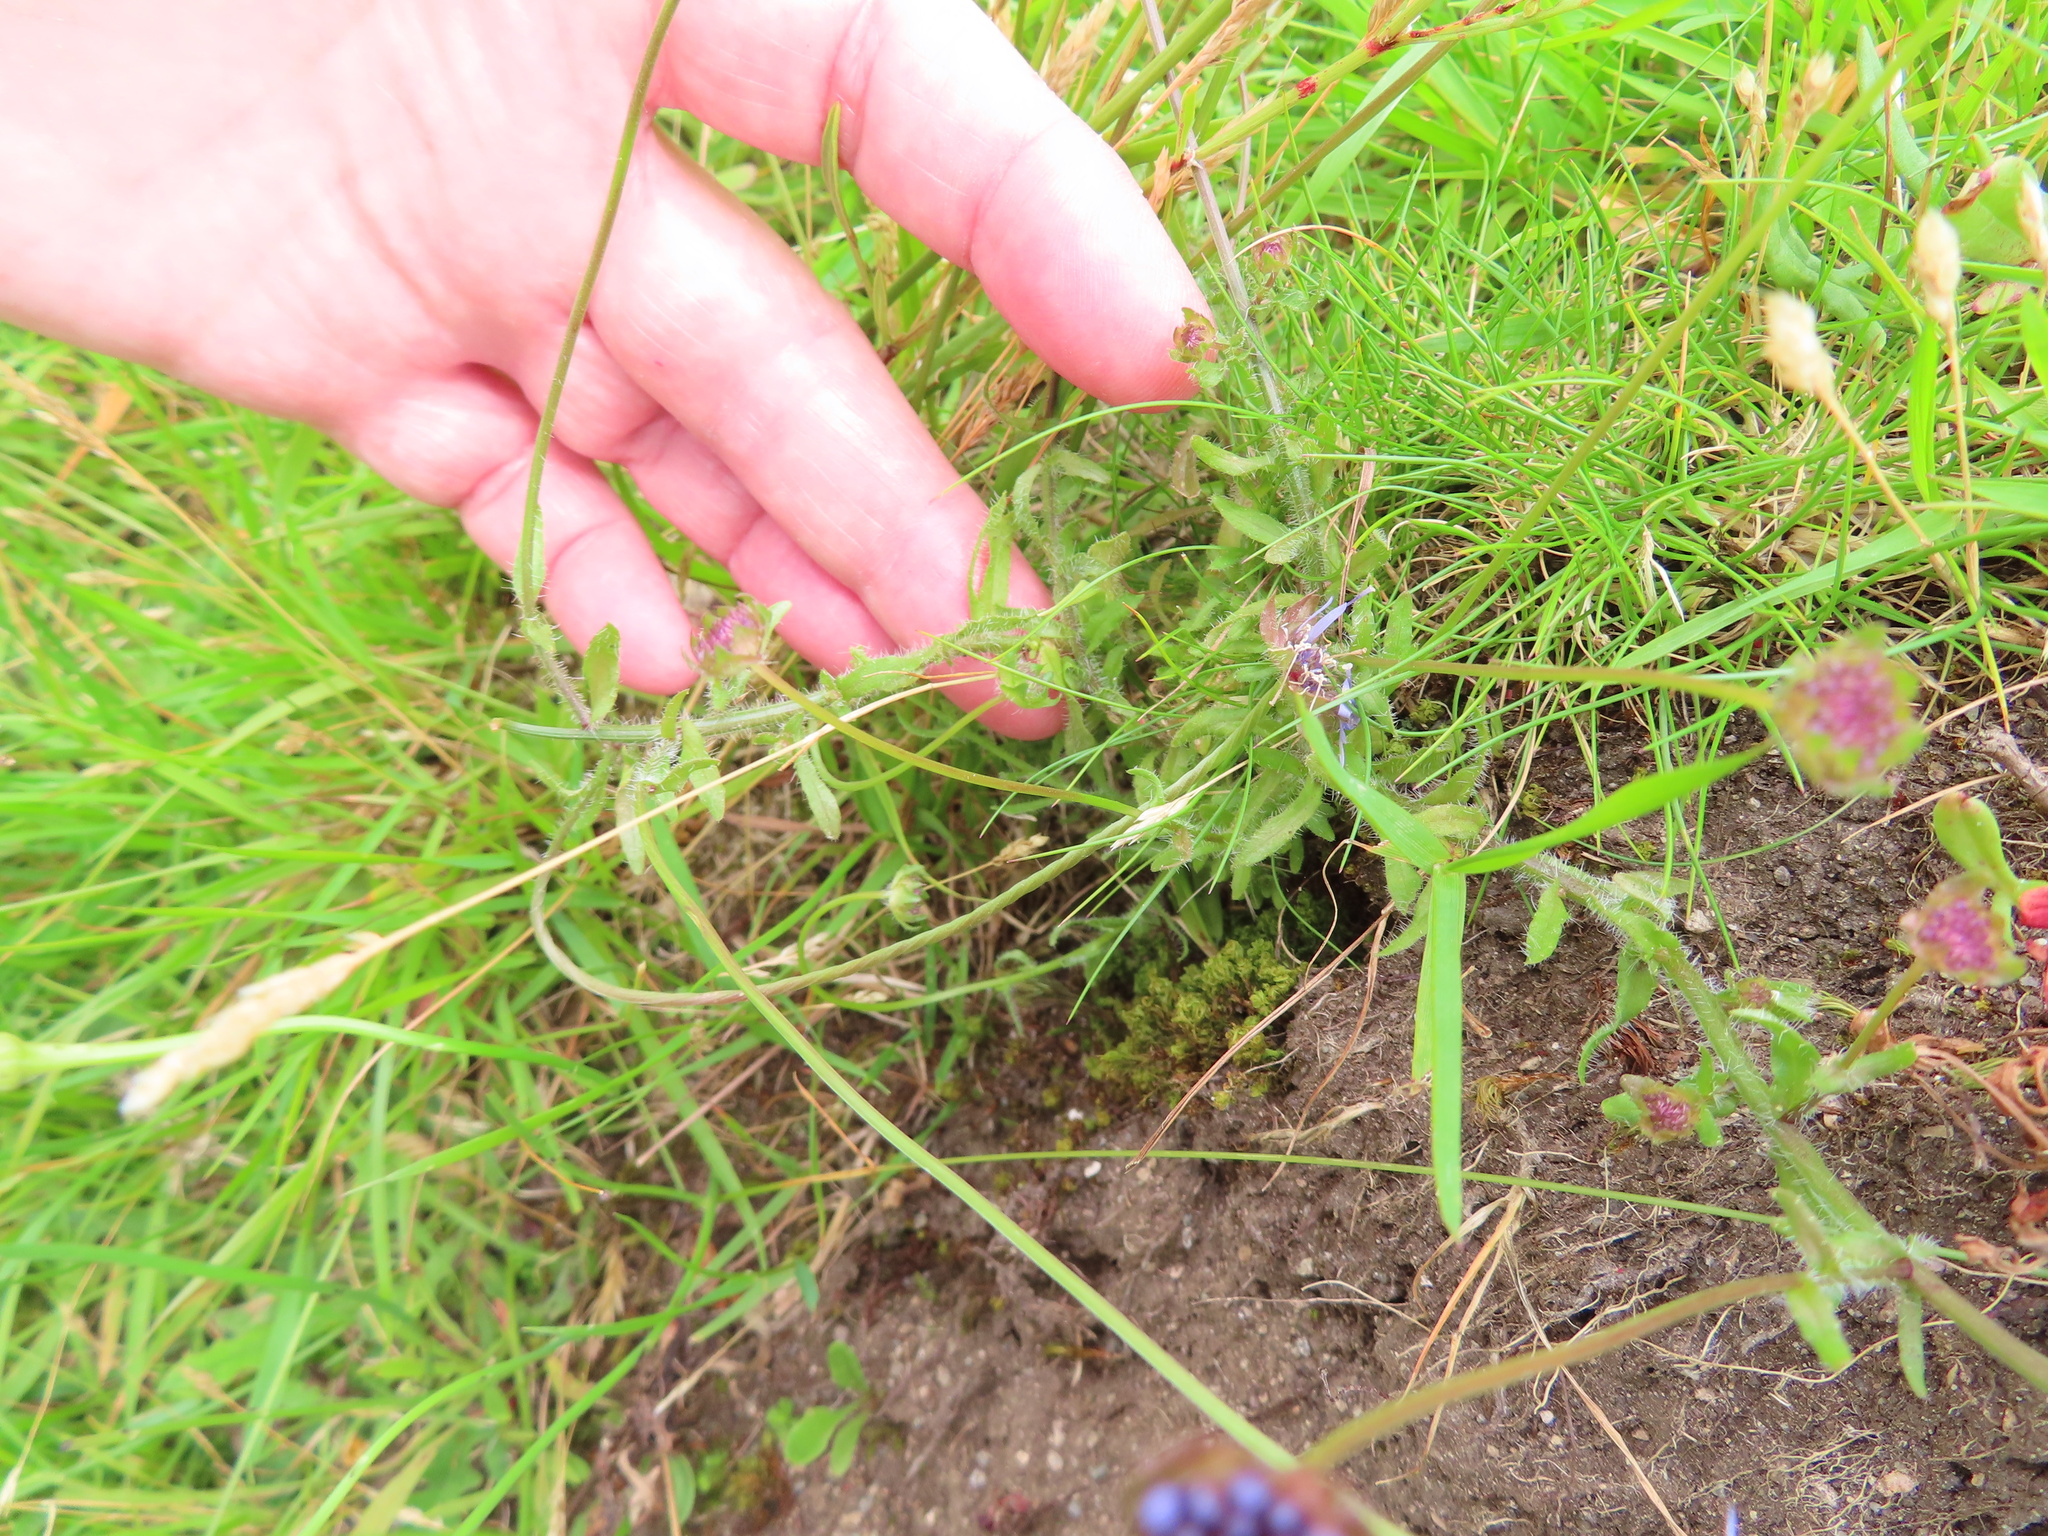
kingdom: Plantae
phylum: Tracheophyta
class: Magnoliopsida
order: Asterales
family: Campanulaceae
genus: Jasione
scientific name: Jasione montana
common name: Sheep's-bit
